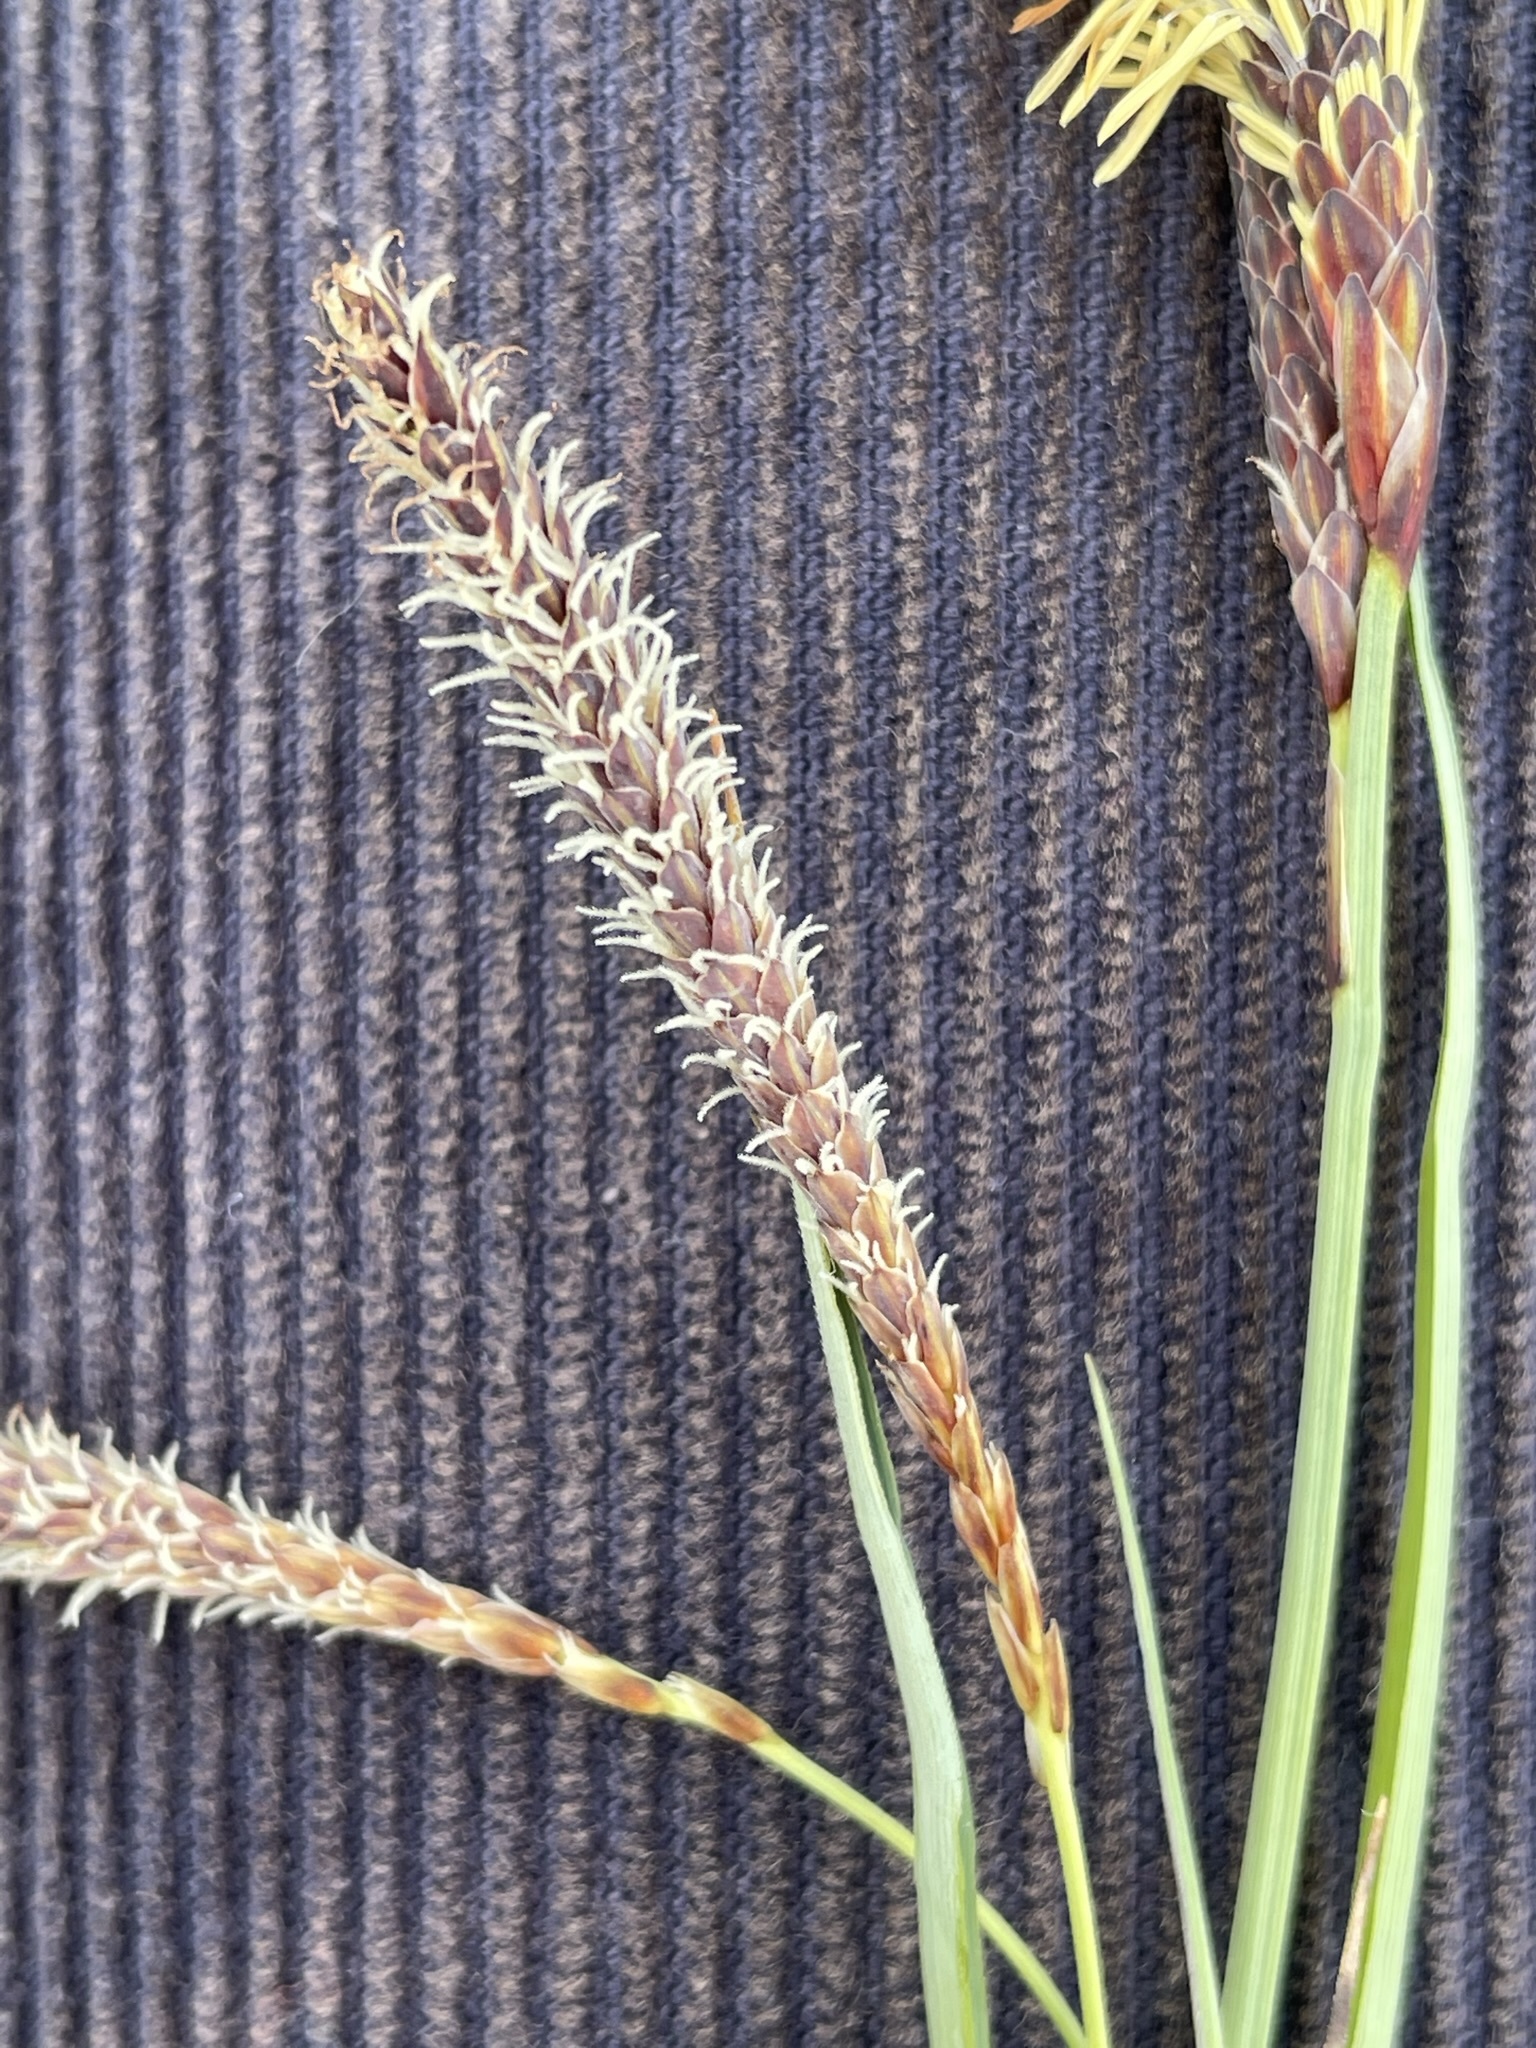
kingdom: Plantae
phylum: Tracheophyta
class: Liliopsida
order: Poales
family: Cyperaceae
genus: Carex
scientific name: Carex flacca
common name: Glaucous sedge
